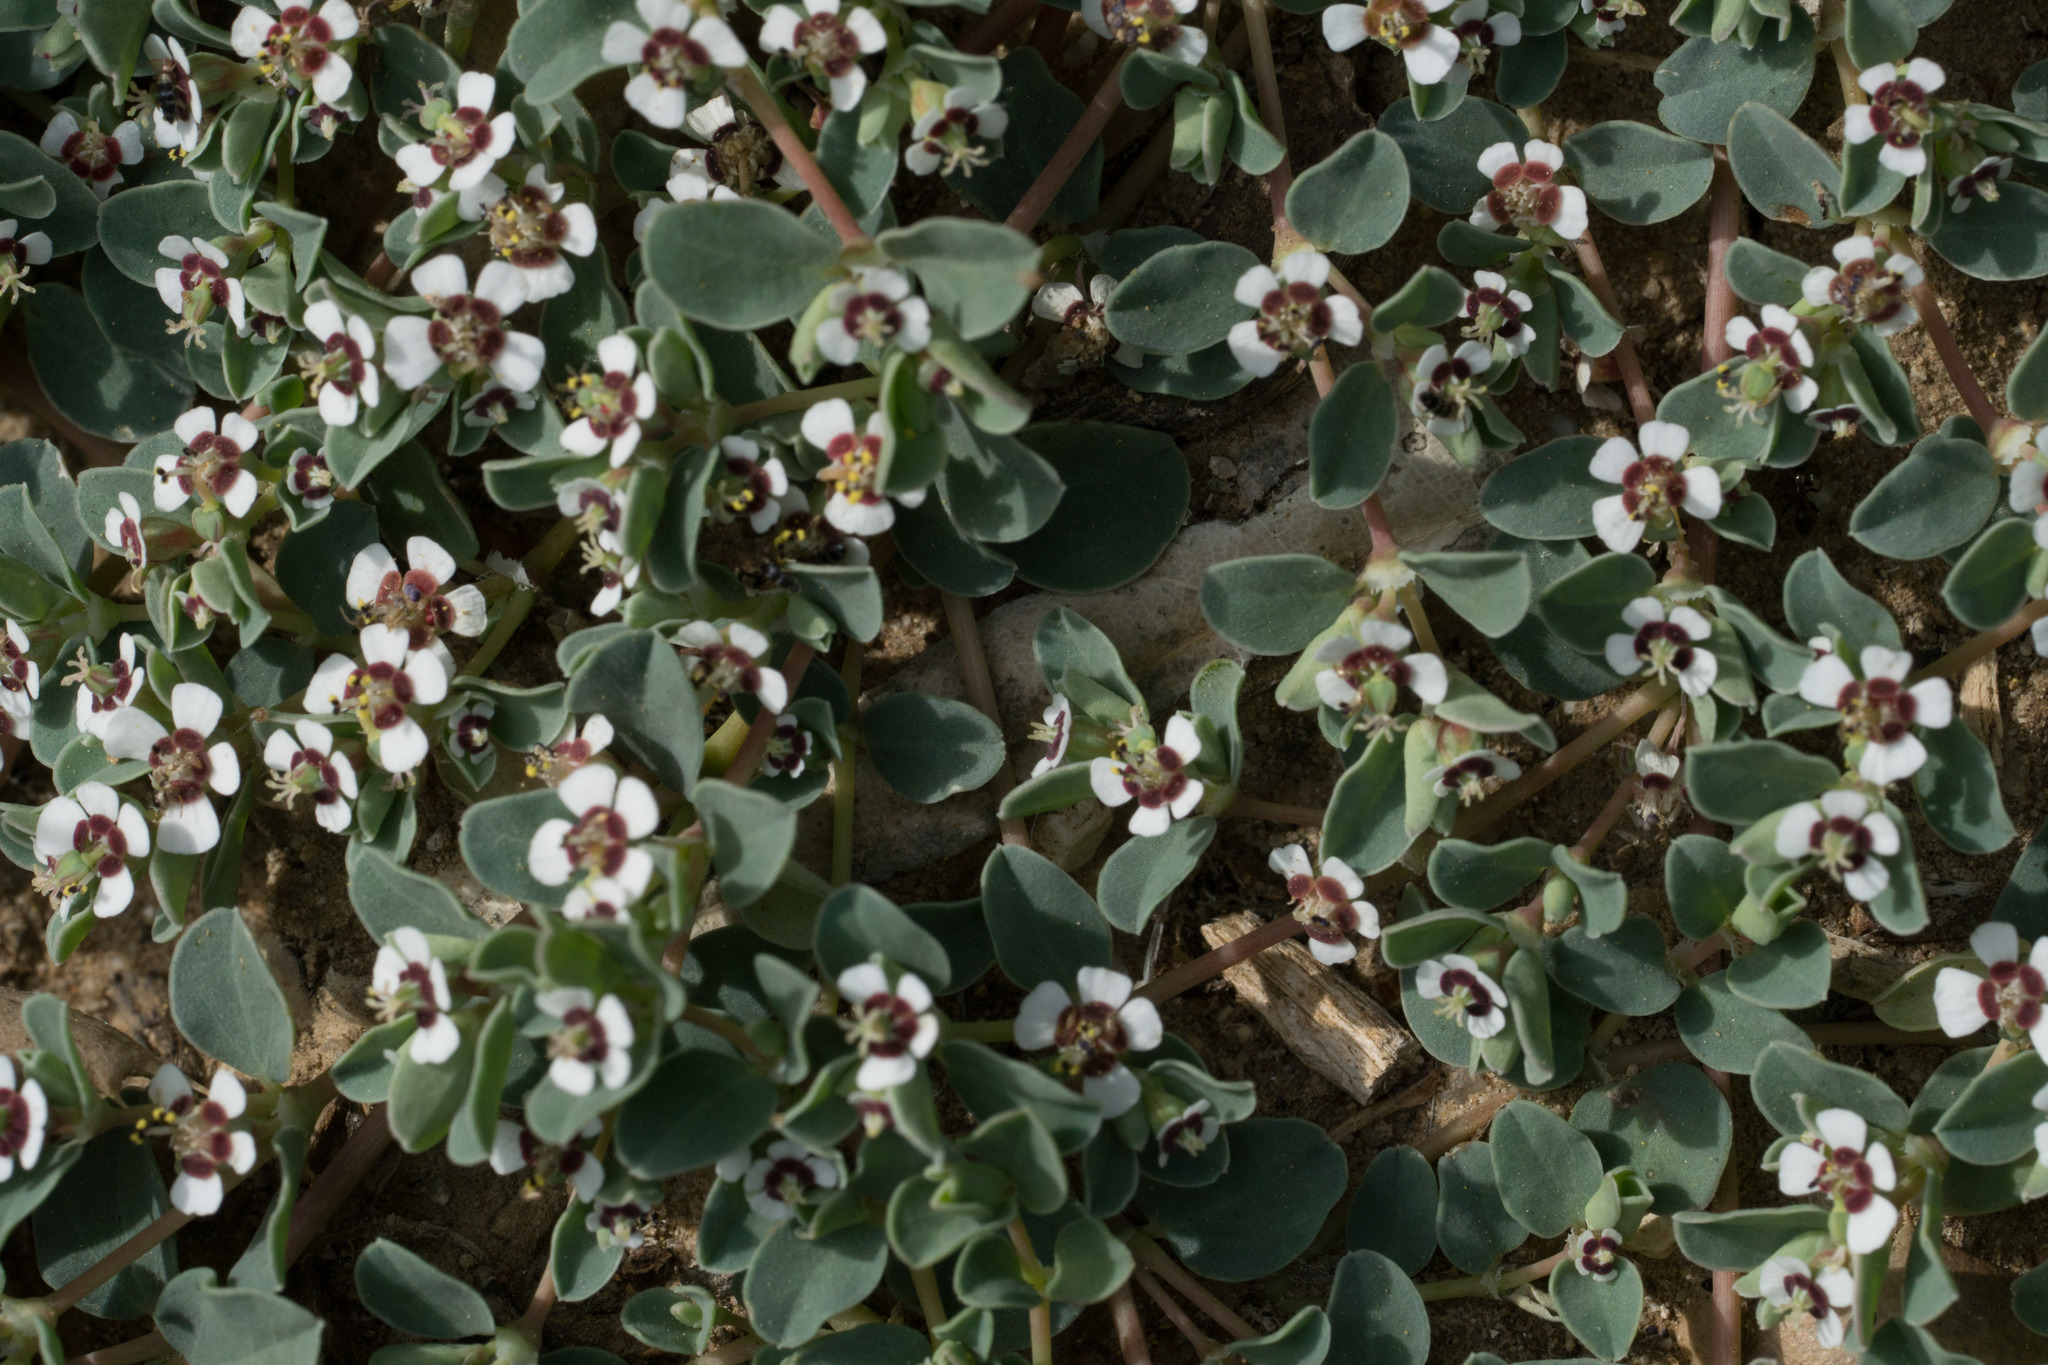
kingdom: Plantae
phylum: Tracheophyta
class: Magnoliopsida
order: Malpighiales
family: Euphorbiaceae
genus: Euphorbia
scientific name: Euphorbia albomarginata
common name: Whitemargin sandmat
